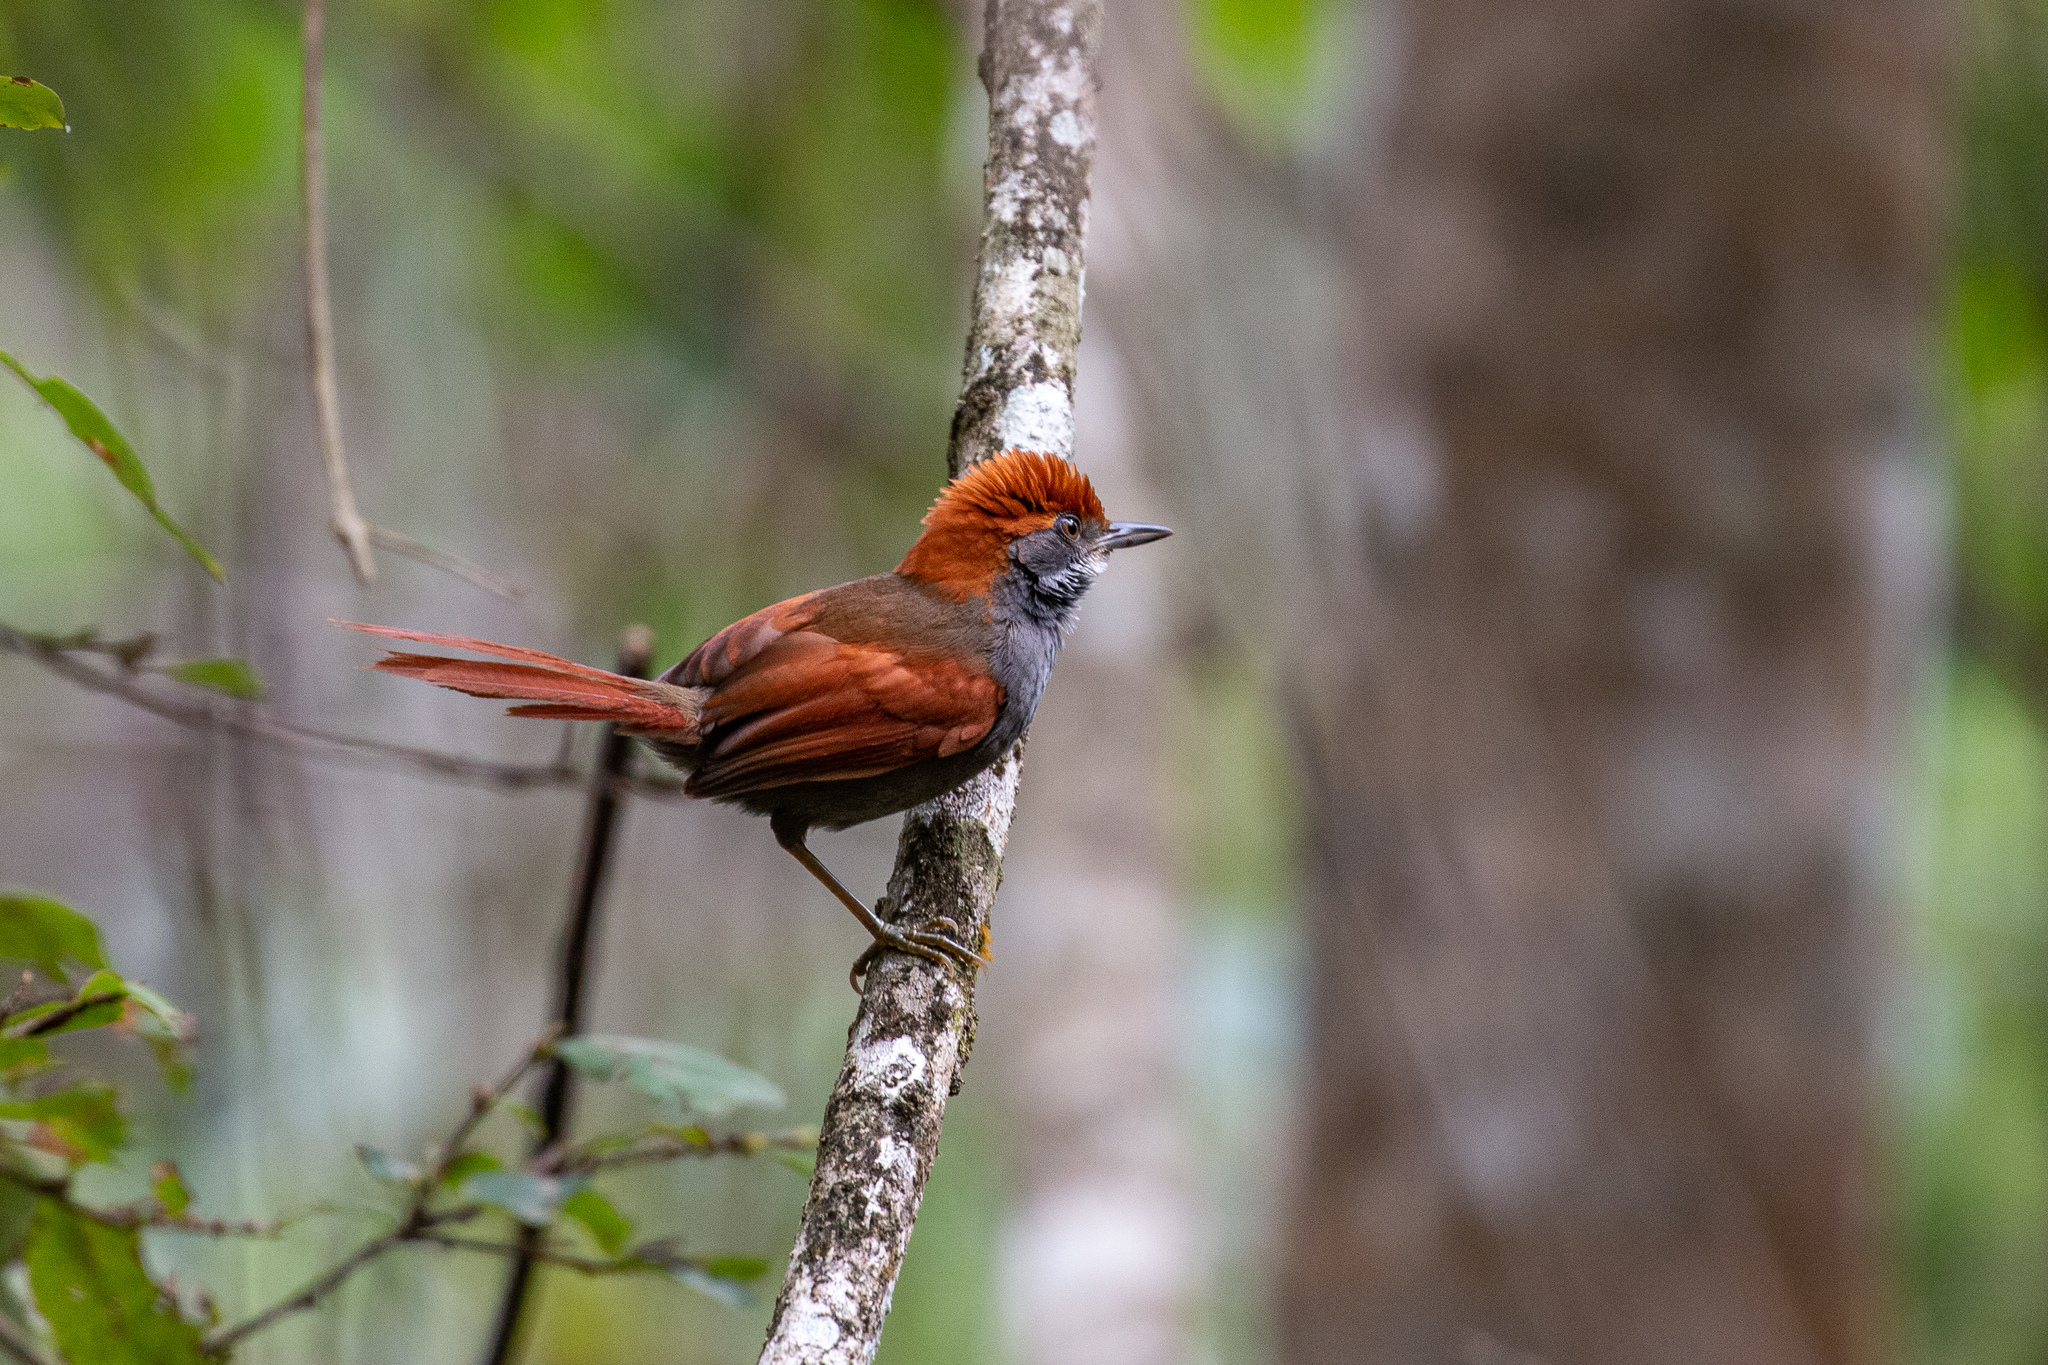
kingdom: Animalia
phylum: Chordata
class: Aves
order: Passeriformes
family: Furnariidae
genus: Synallaxis
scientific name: Synallaxis infuscata
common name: Pinto's spinetail
